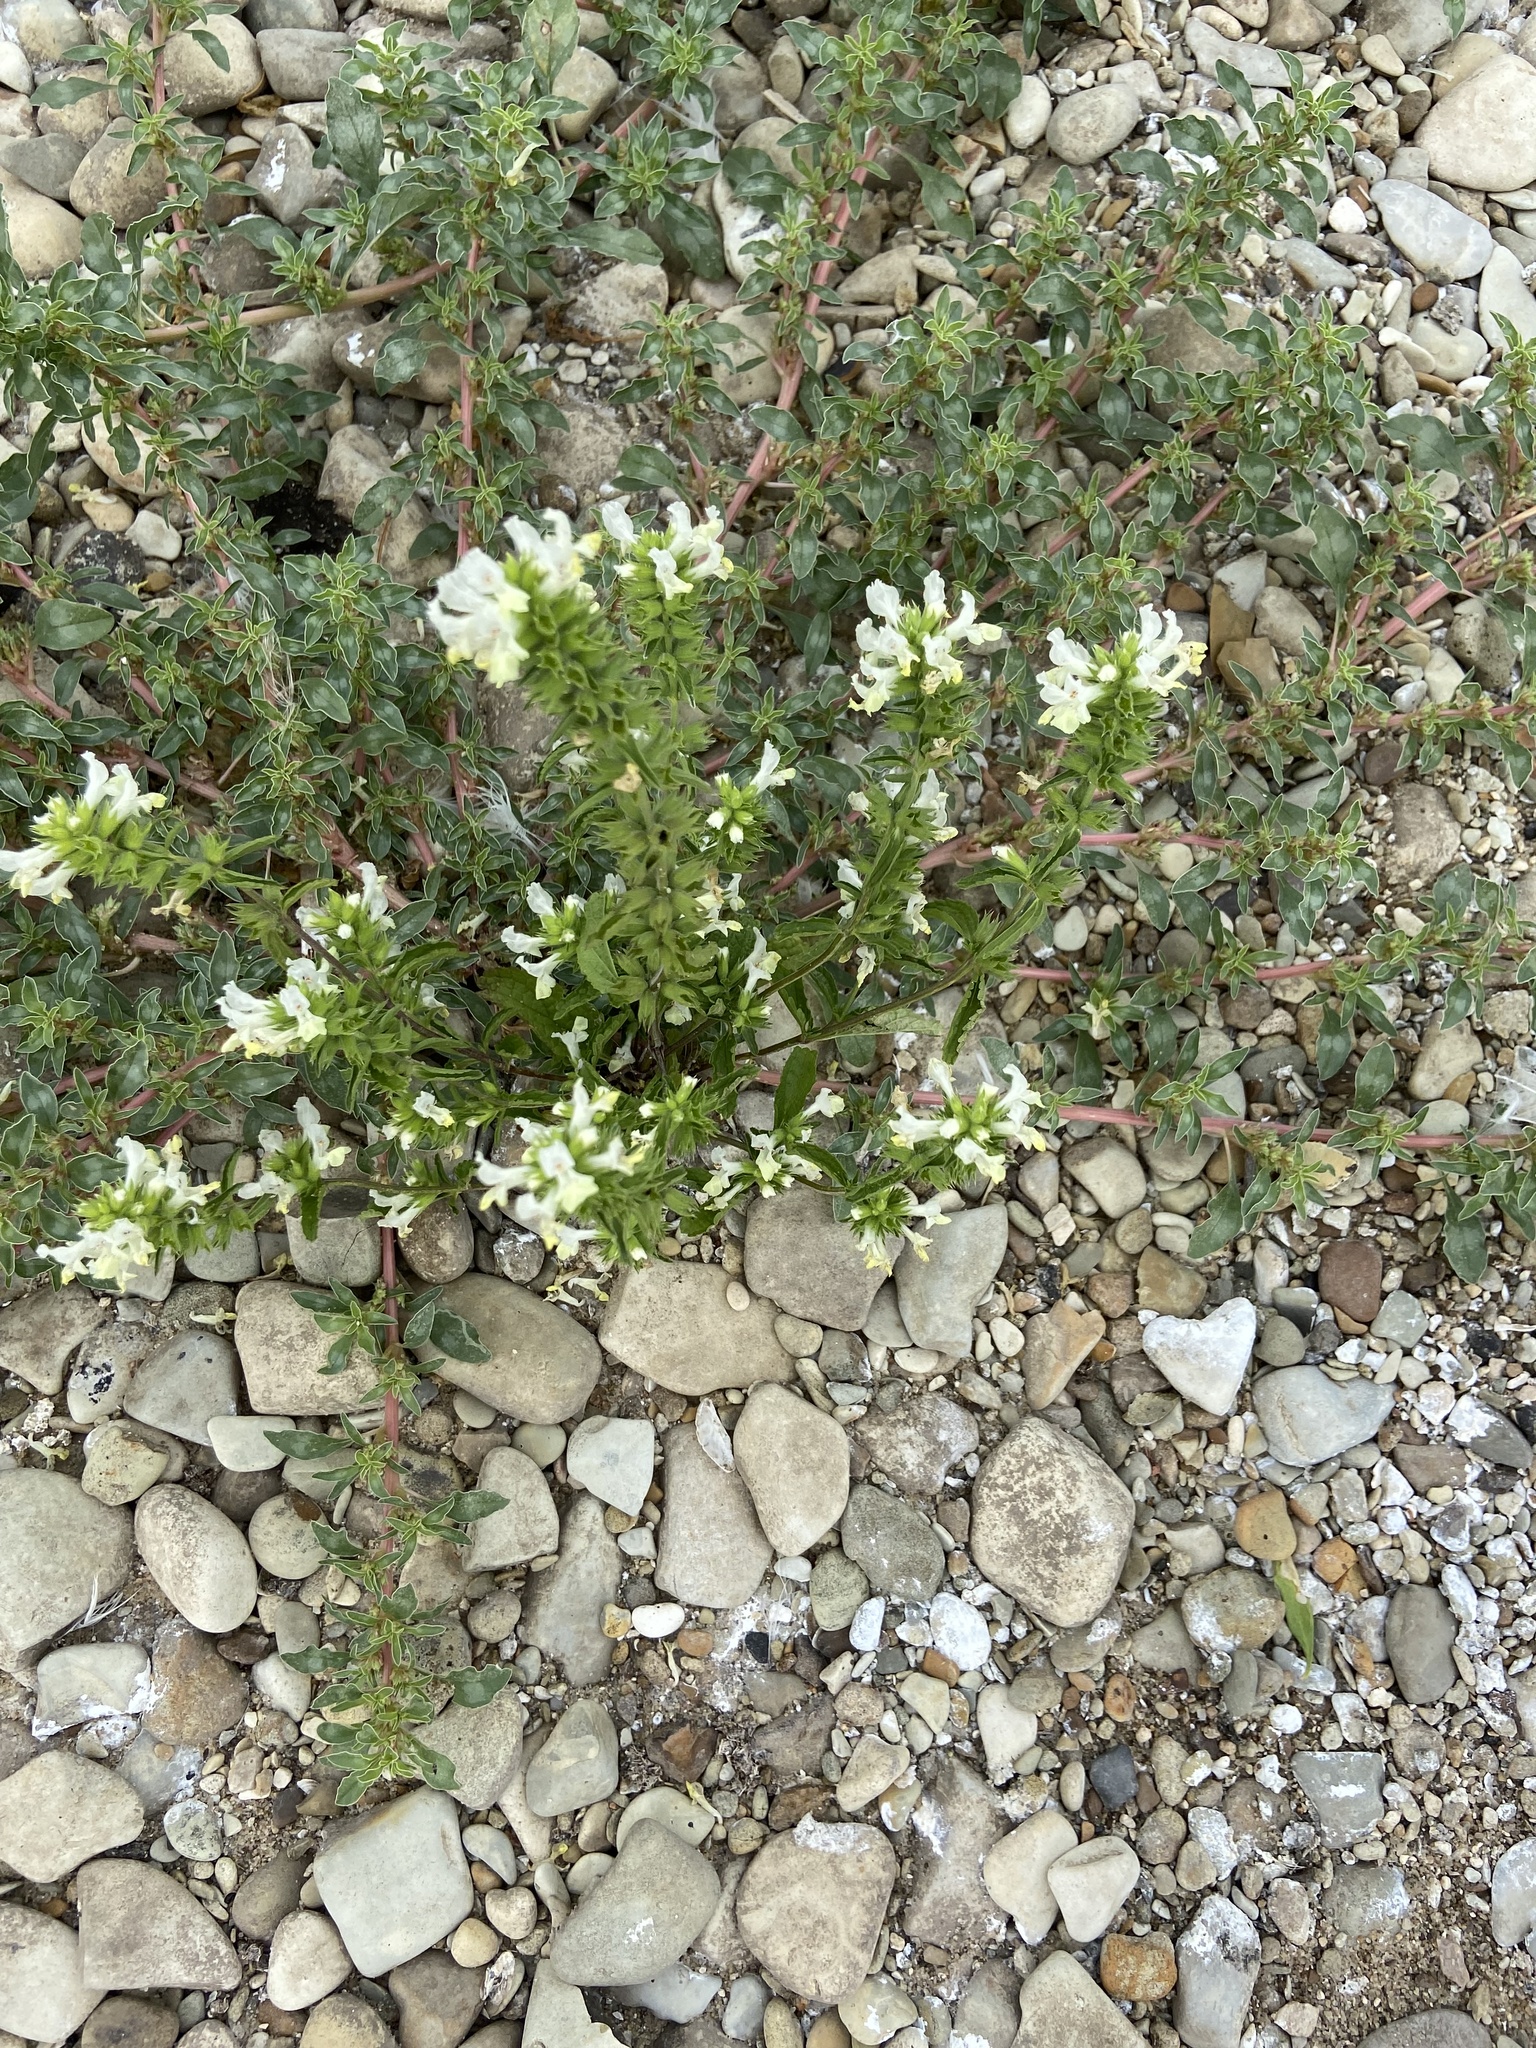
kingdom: Plantae
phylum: Tracheophyta
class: Magnoliopsida
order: Lamiales
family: Lamiaceae
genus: Stachys
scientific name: Stachys annua
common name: Annual yellow-woundwort
